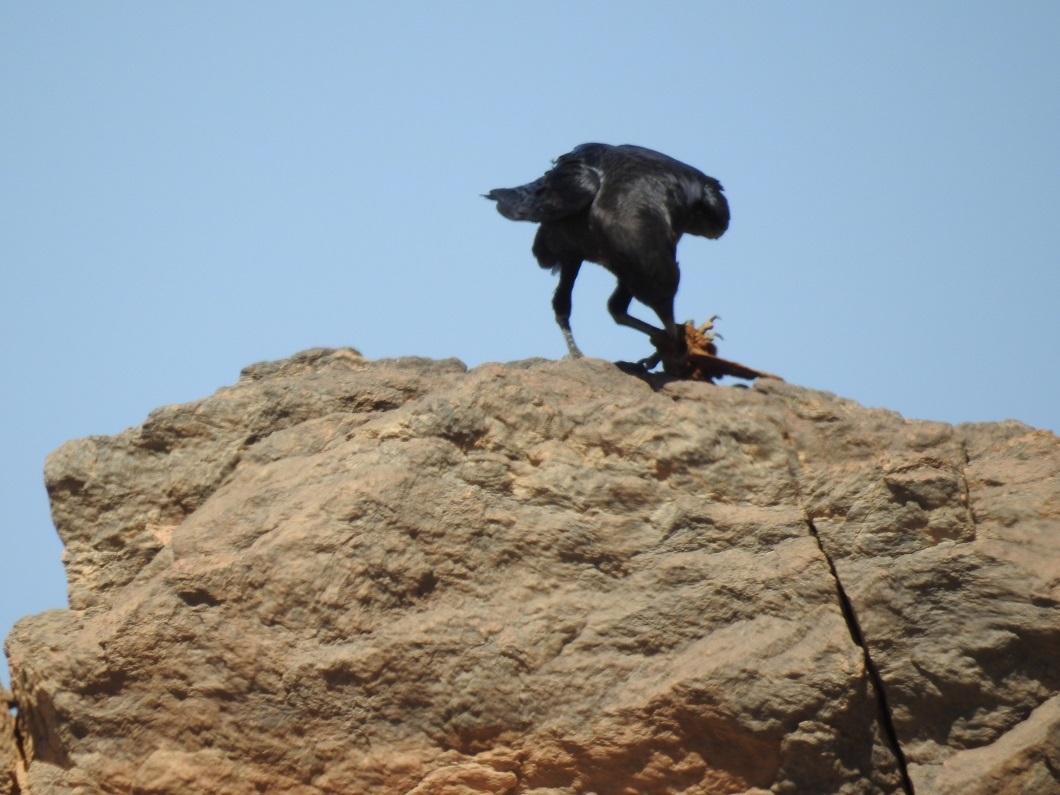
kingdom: Animalia
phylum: Chordata
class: Aves
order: Passeriformes
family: Corvidae
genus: Corvus
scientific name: Corvus ruficollis
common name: Brown-necked raven
